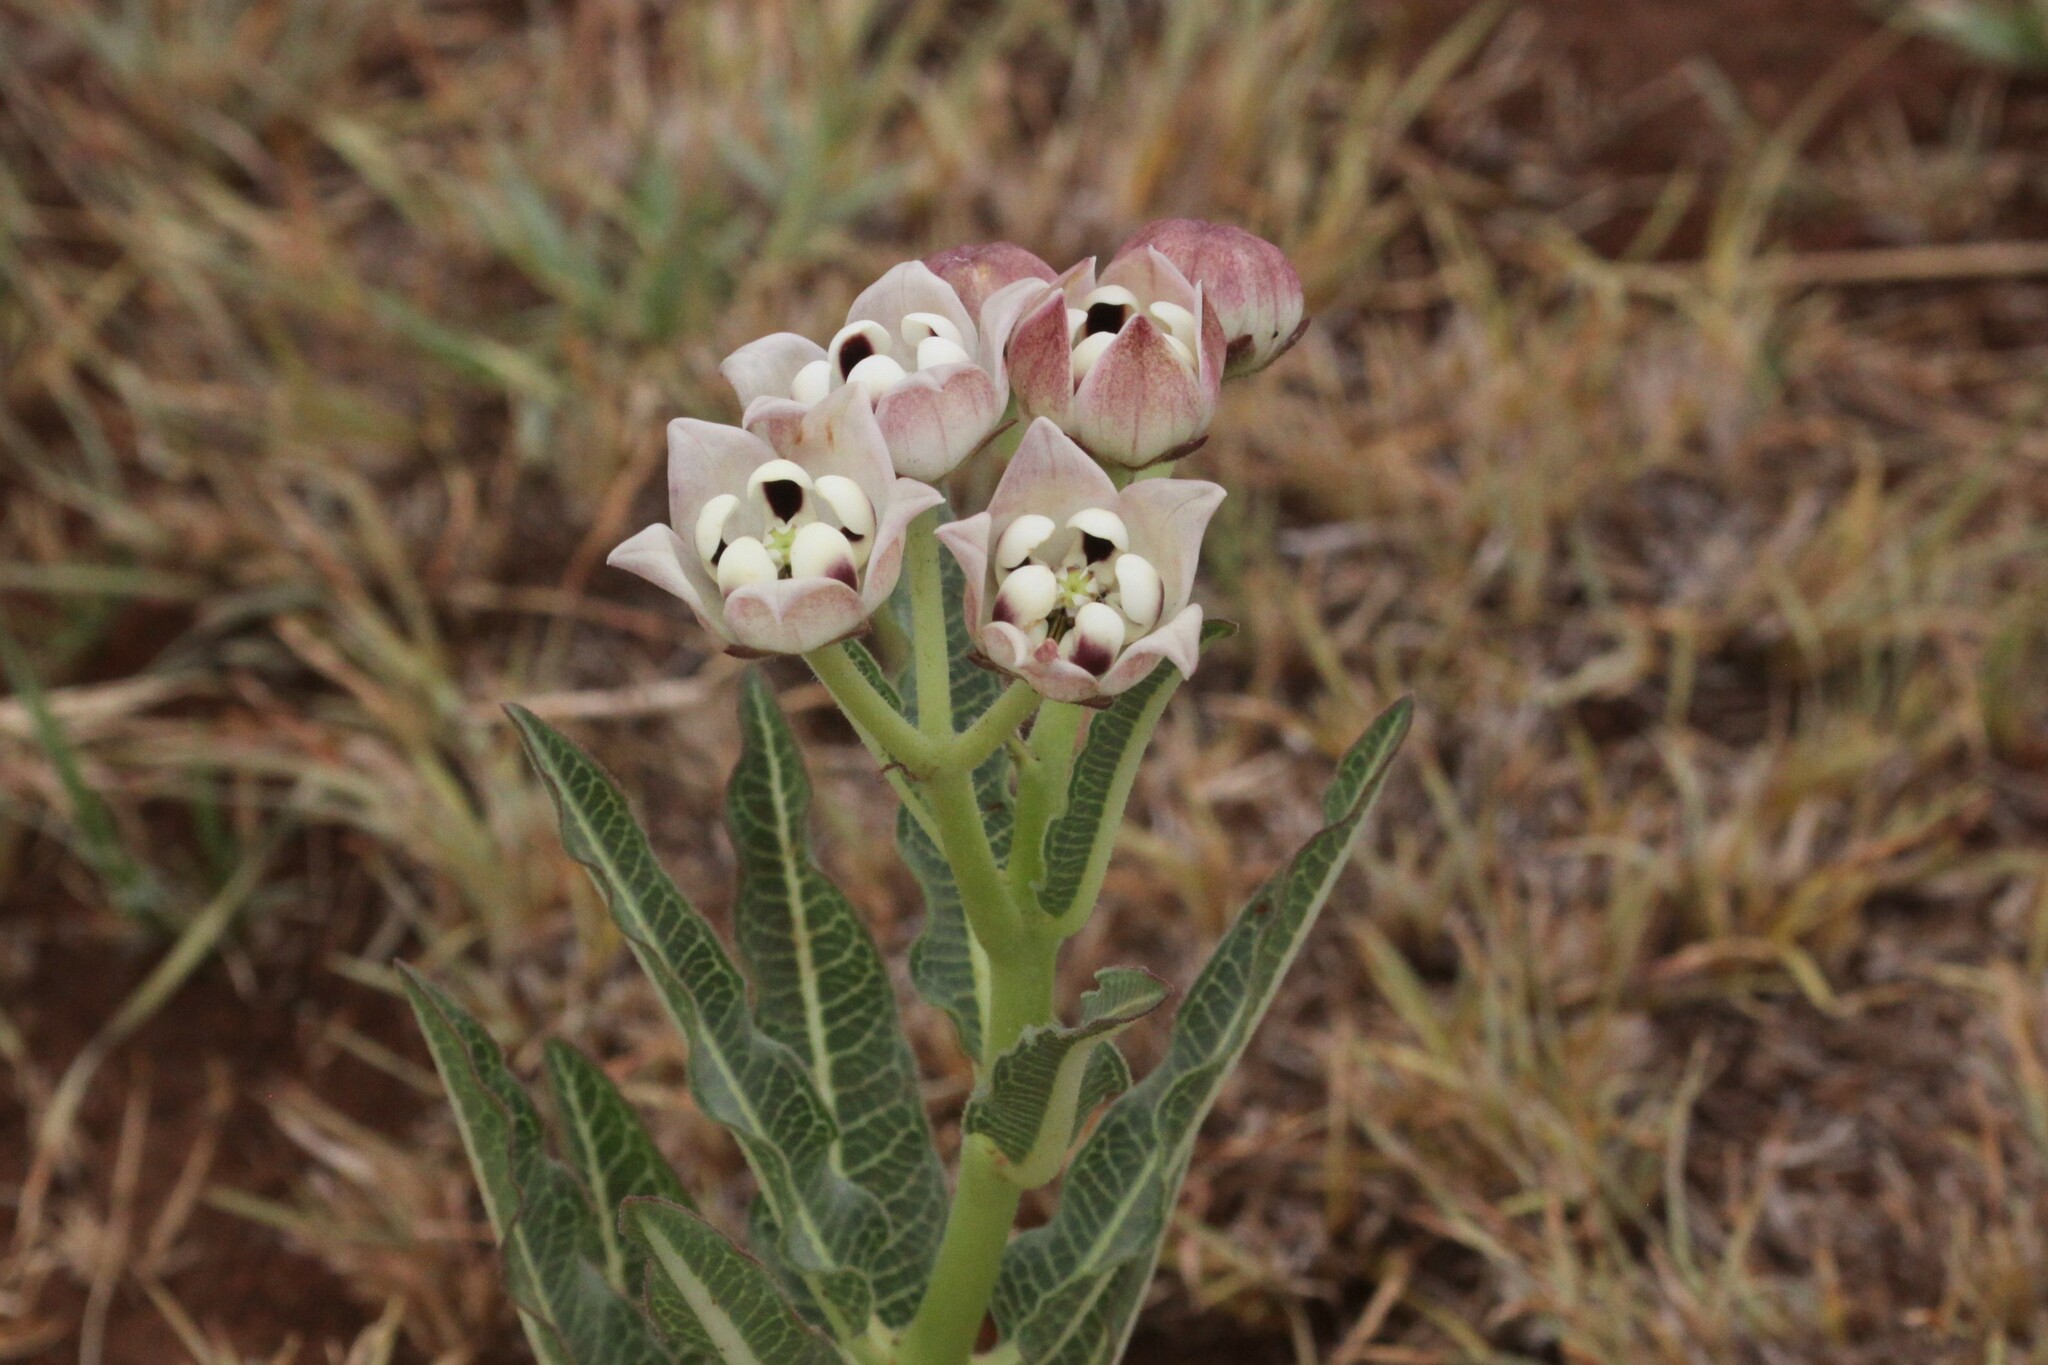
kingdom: Plantae
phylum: Tracheophyta
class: Magnoliopsida
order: Gentianales
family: Apocynaceae
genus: Pachycarpus
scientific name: Pachycarpus schinzianus
